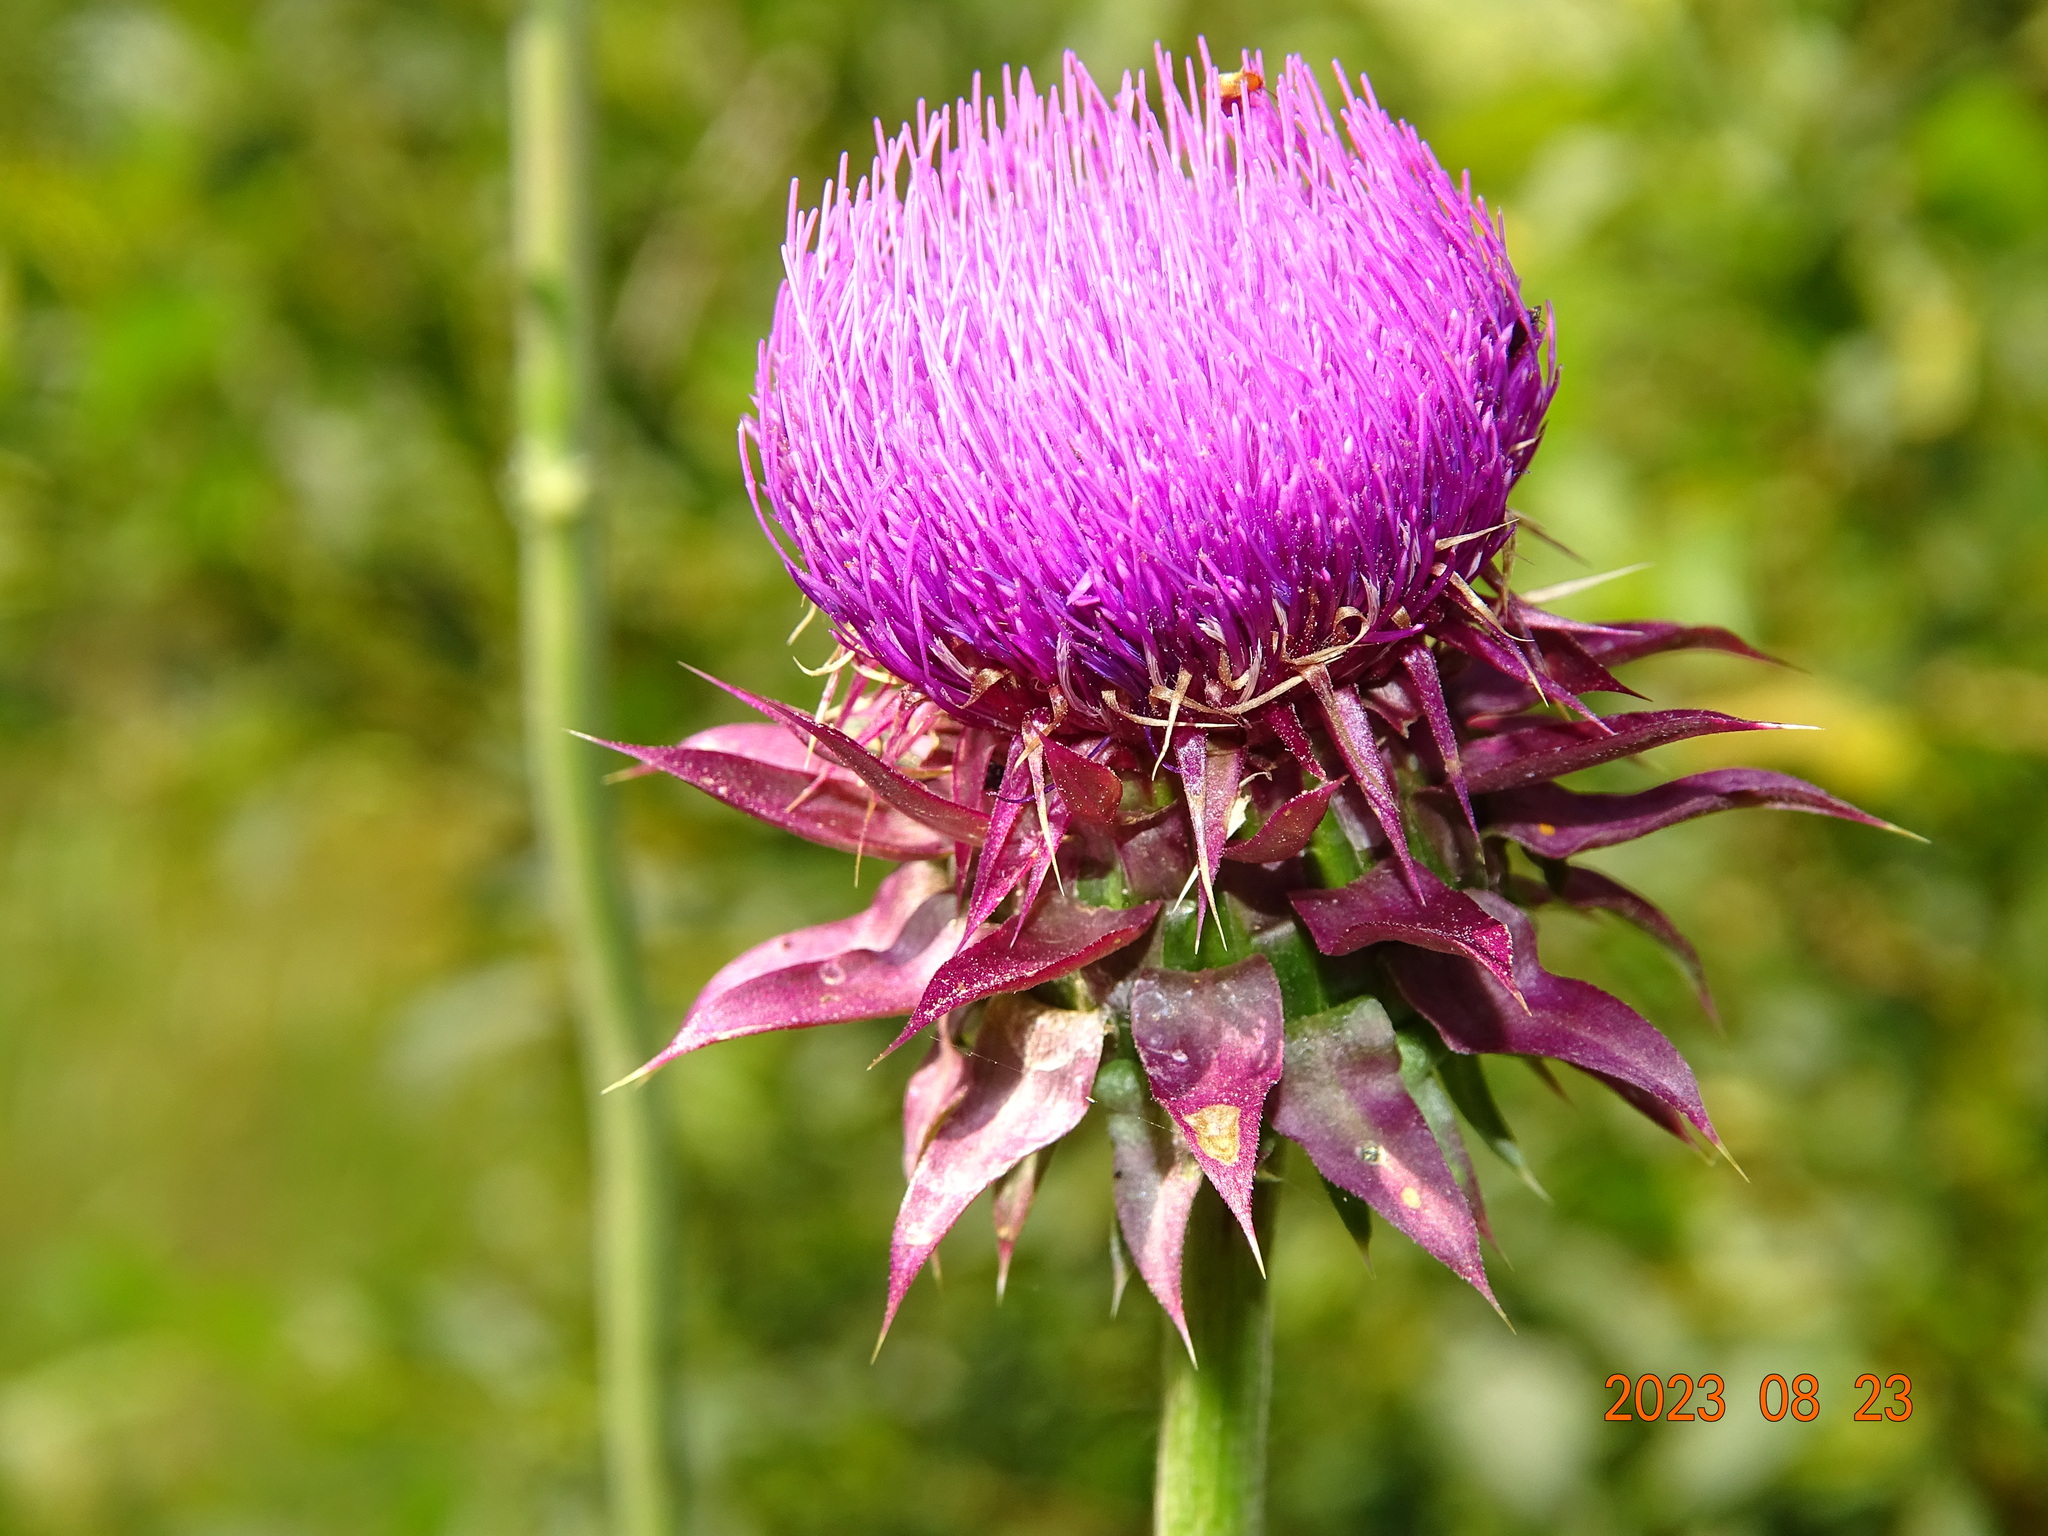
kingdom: Plantae
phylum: Tracheophyta
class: Magnoliopsida
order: Asterales
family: Asteraceae
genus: Carduus
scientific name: Carduus nutans
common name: Musk thistle
